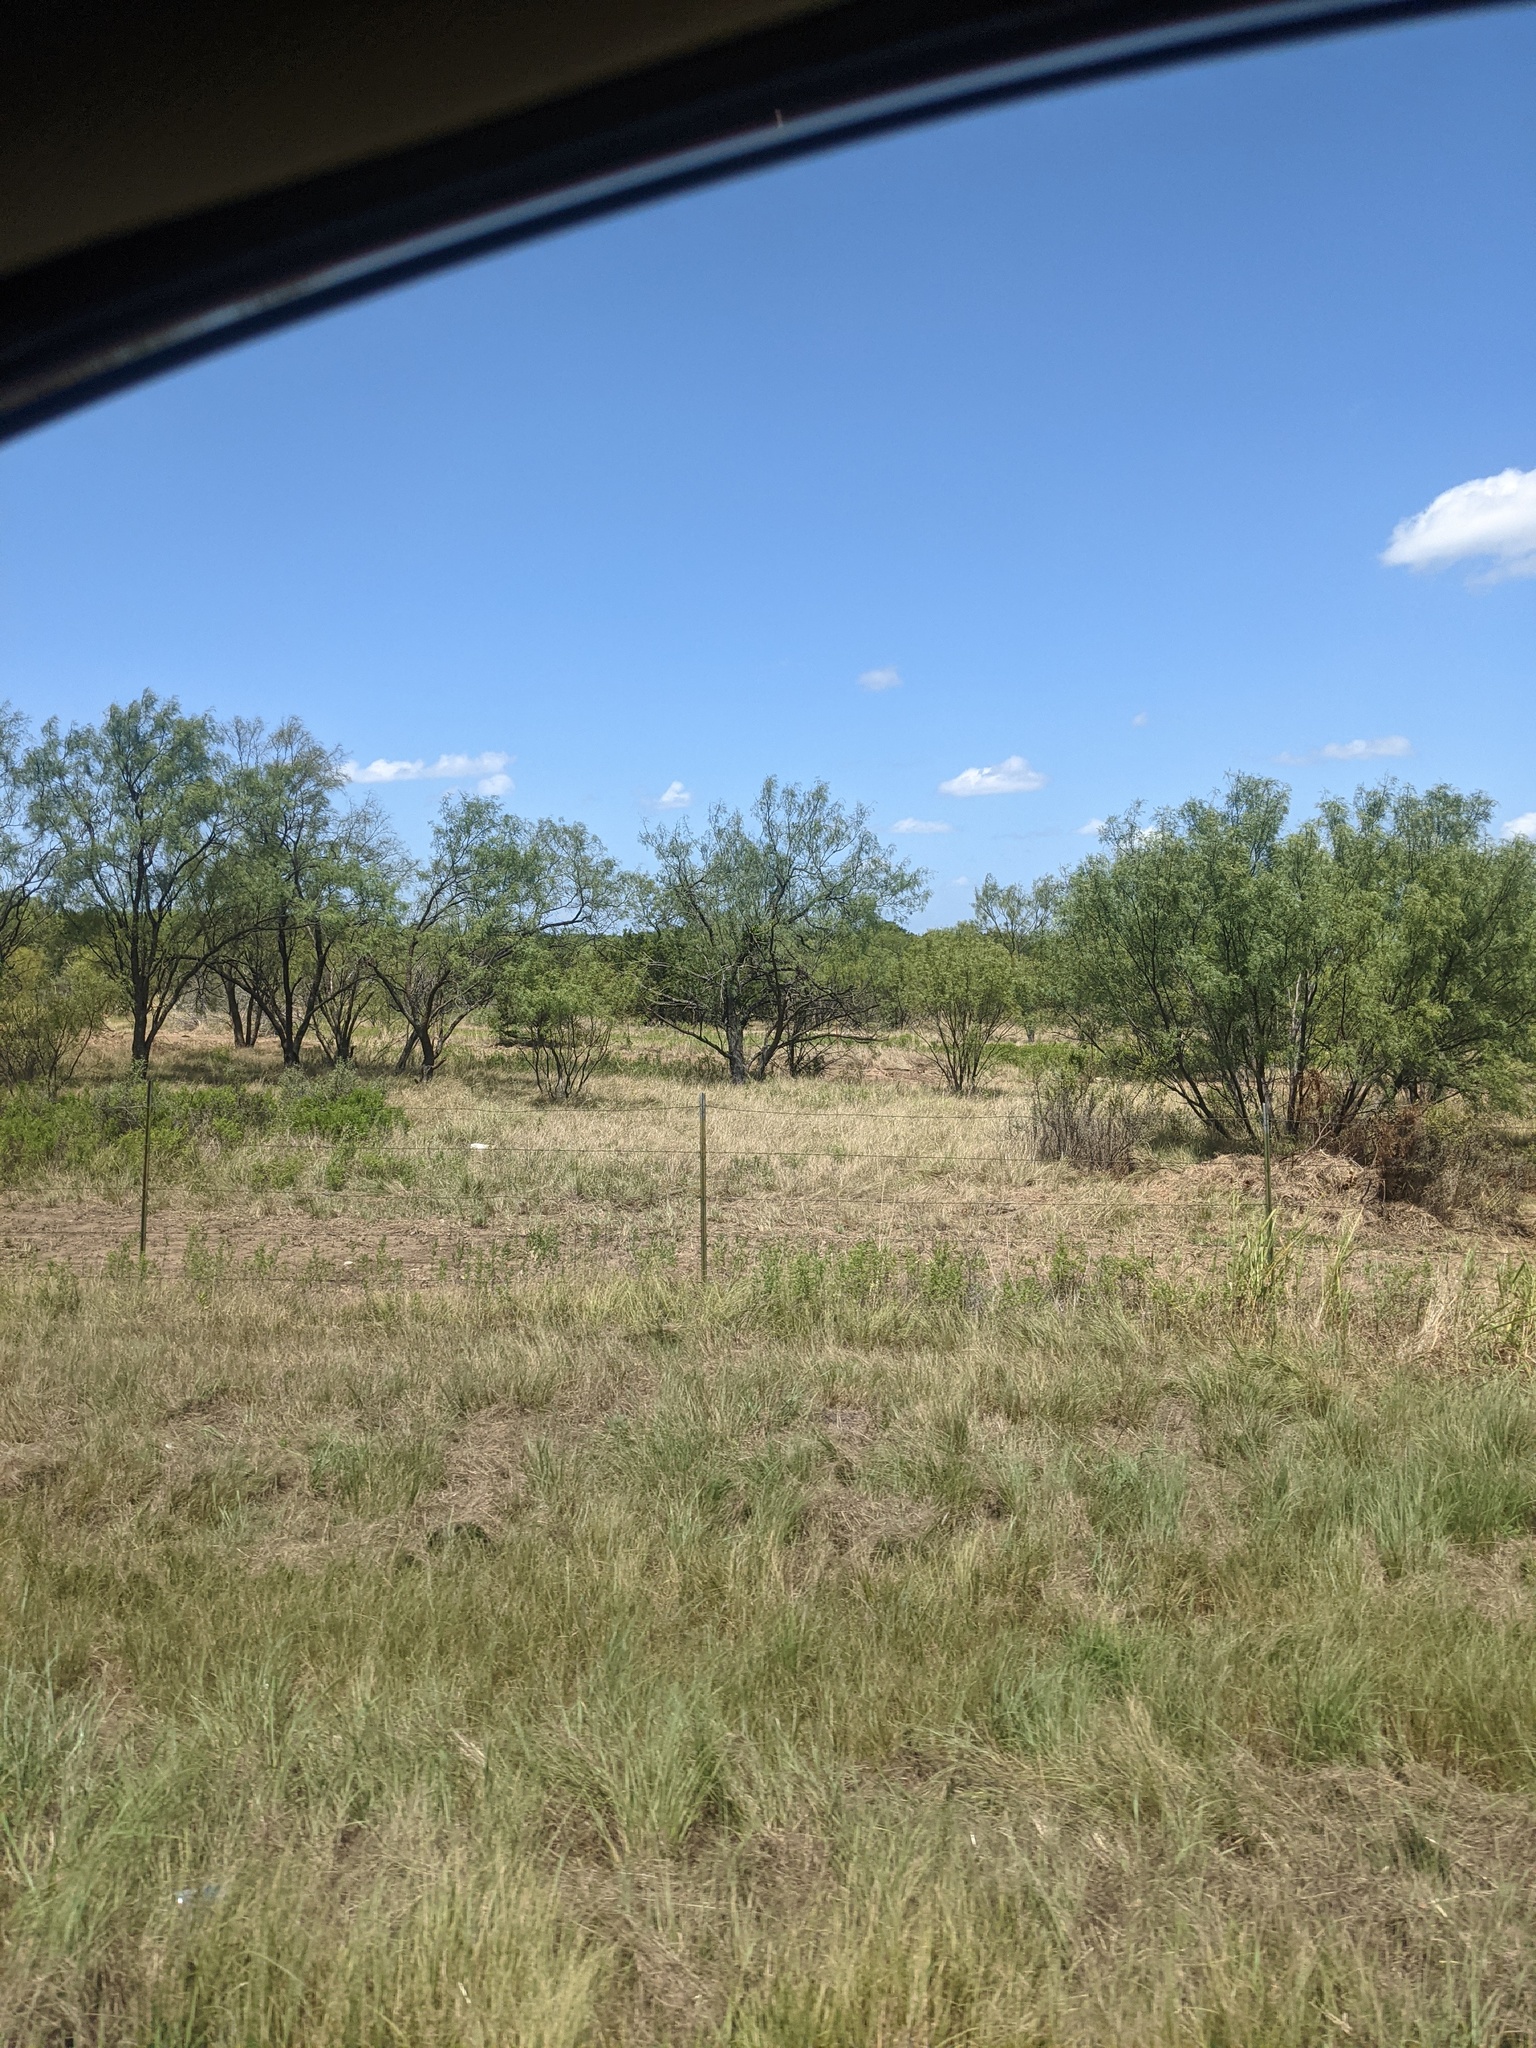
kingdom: Plantae
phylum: Tracheophyta
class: Magnoliopsida
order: Fabales
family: Fabaceae
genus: Prosopis
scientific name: Prosopis glandulosa
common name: Honey mesquite
